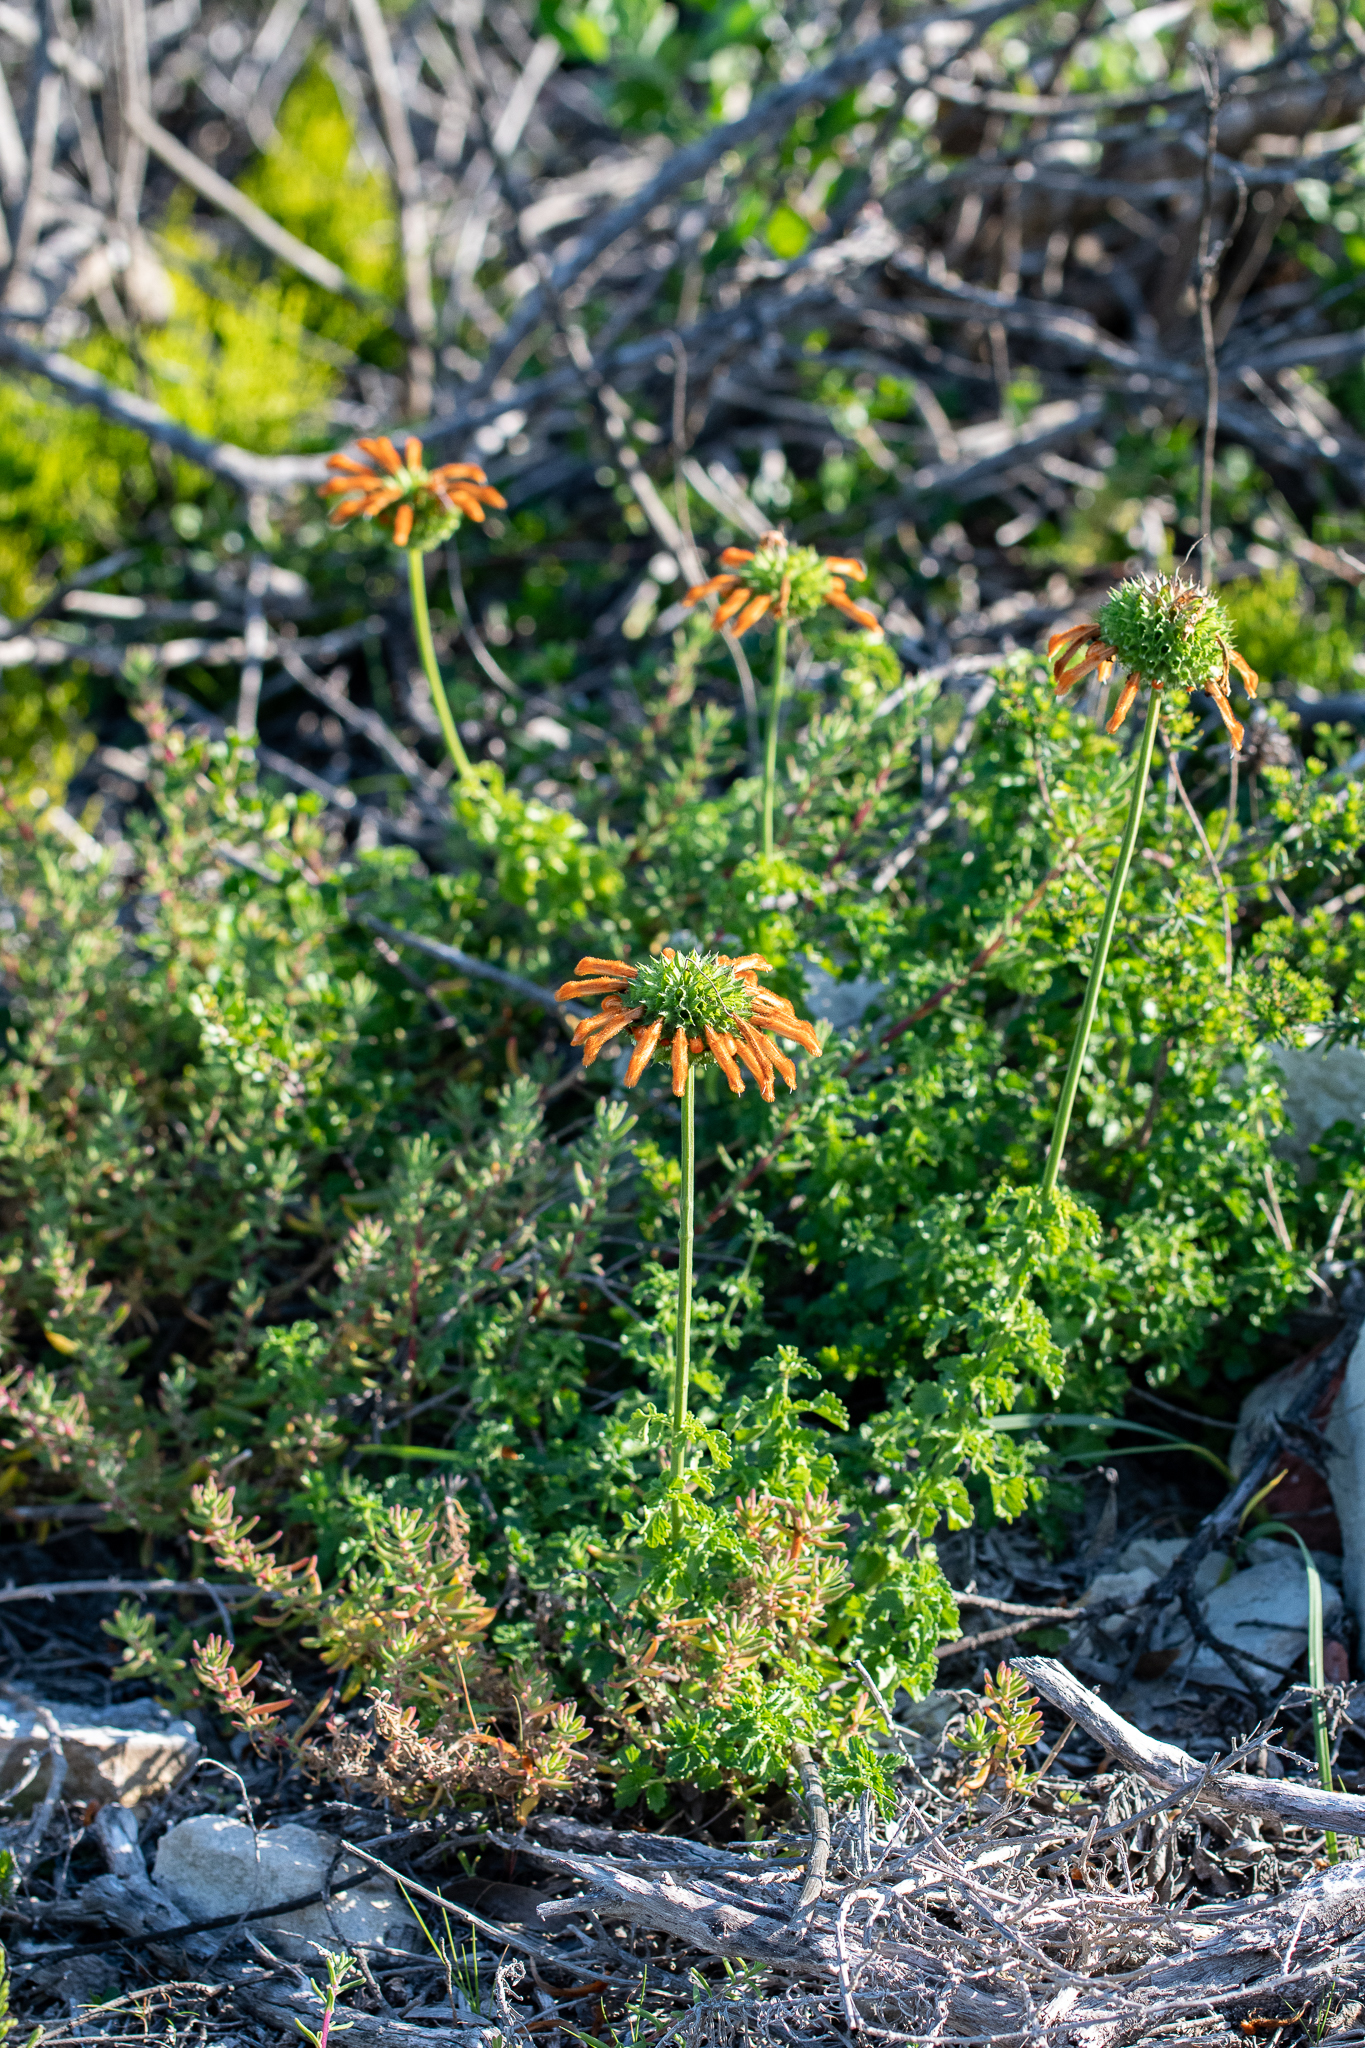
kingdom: Plantae
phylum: Tracheophyta
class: Magnoliopsida
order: Lamiales
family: Lamiaceae
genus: Leonotis
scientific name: Leonotis ocymifolia
